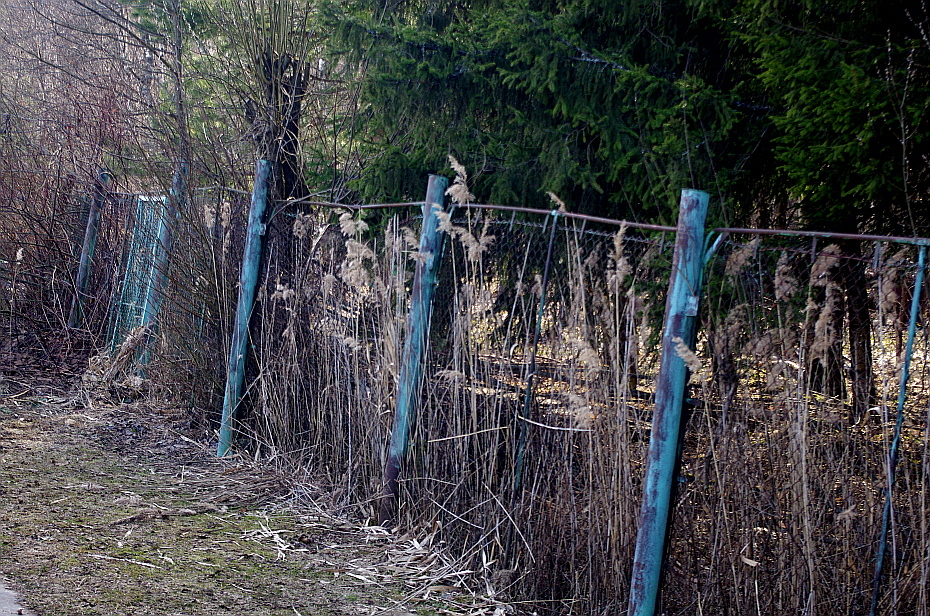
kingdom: Plantae
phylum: Tracheophyta
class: Liliopsida
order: Poales
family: Poaceae
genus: Phragmites
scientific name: Phragmites australis
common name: Common reed
